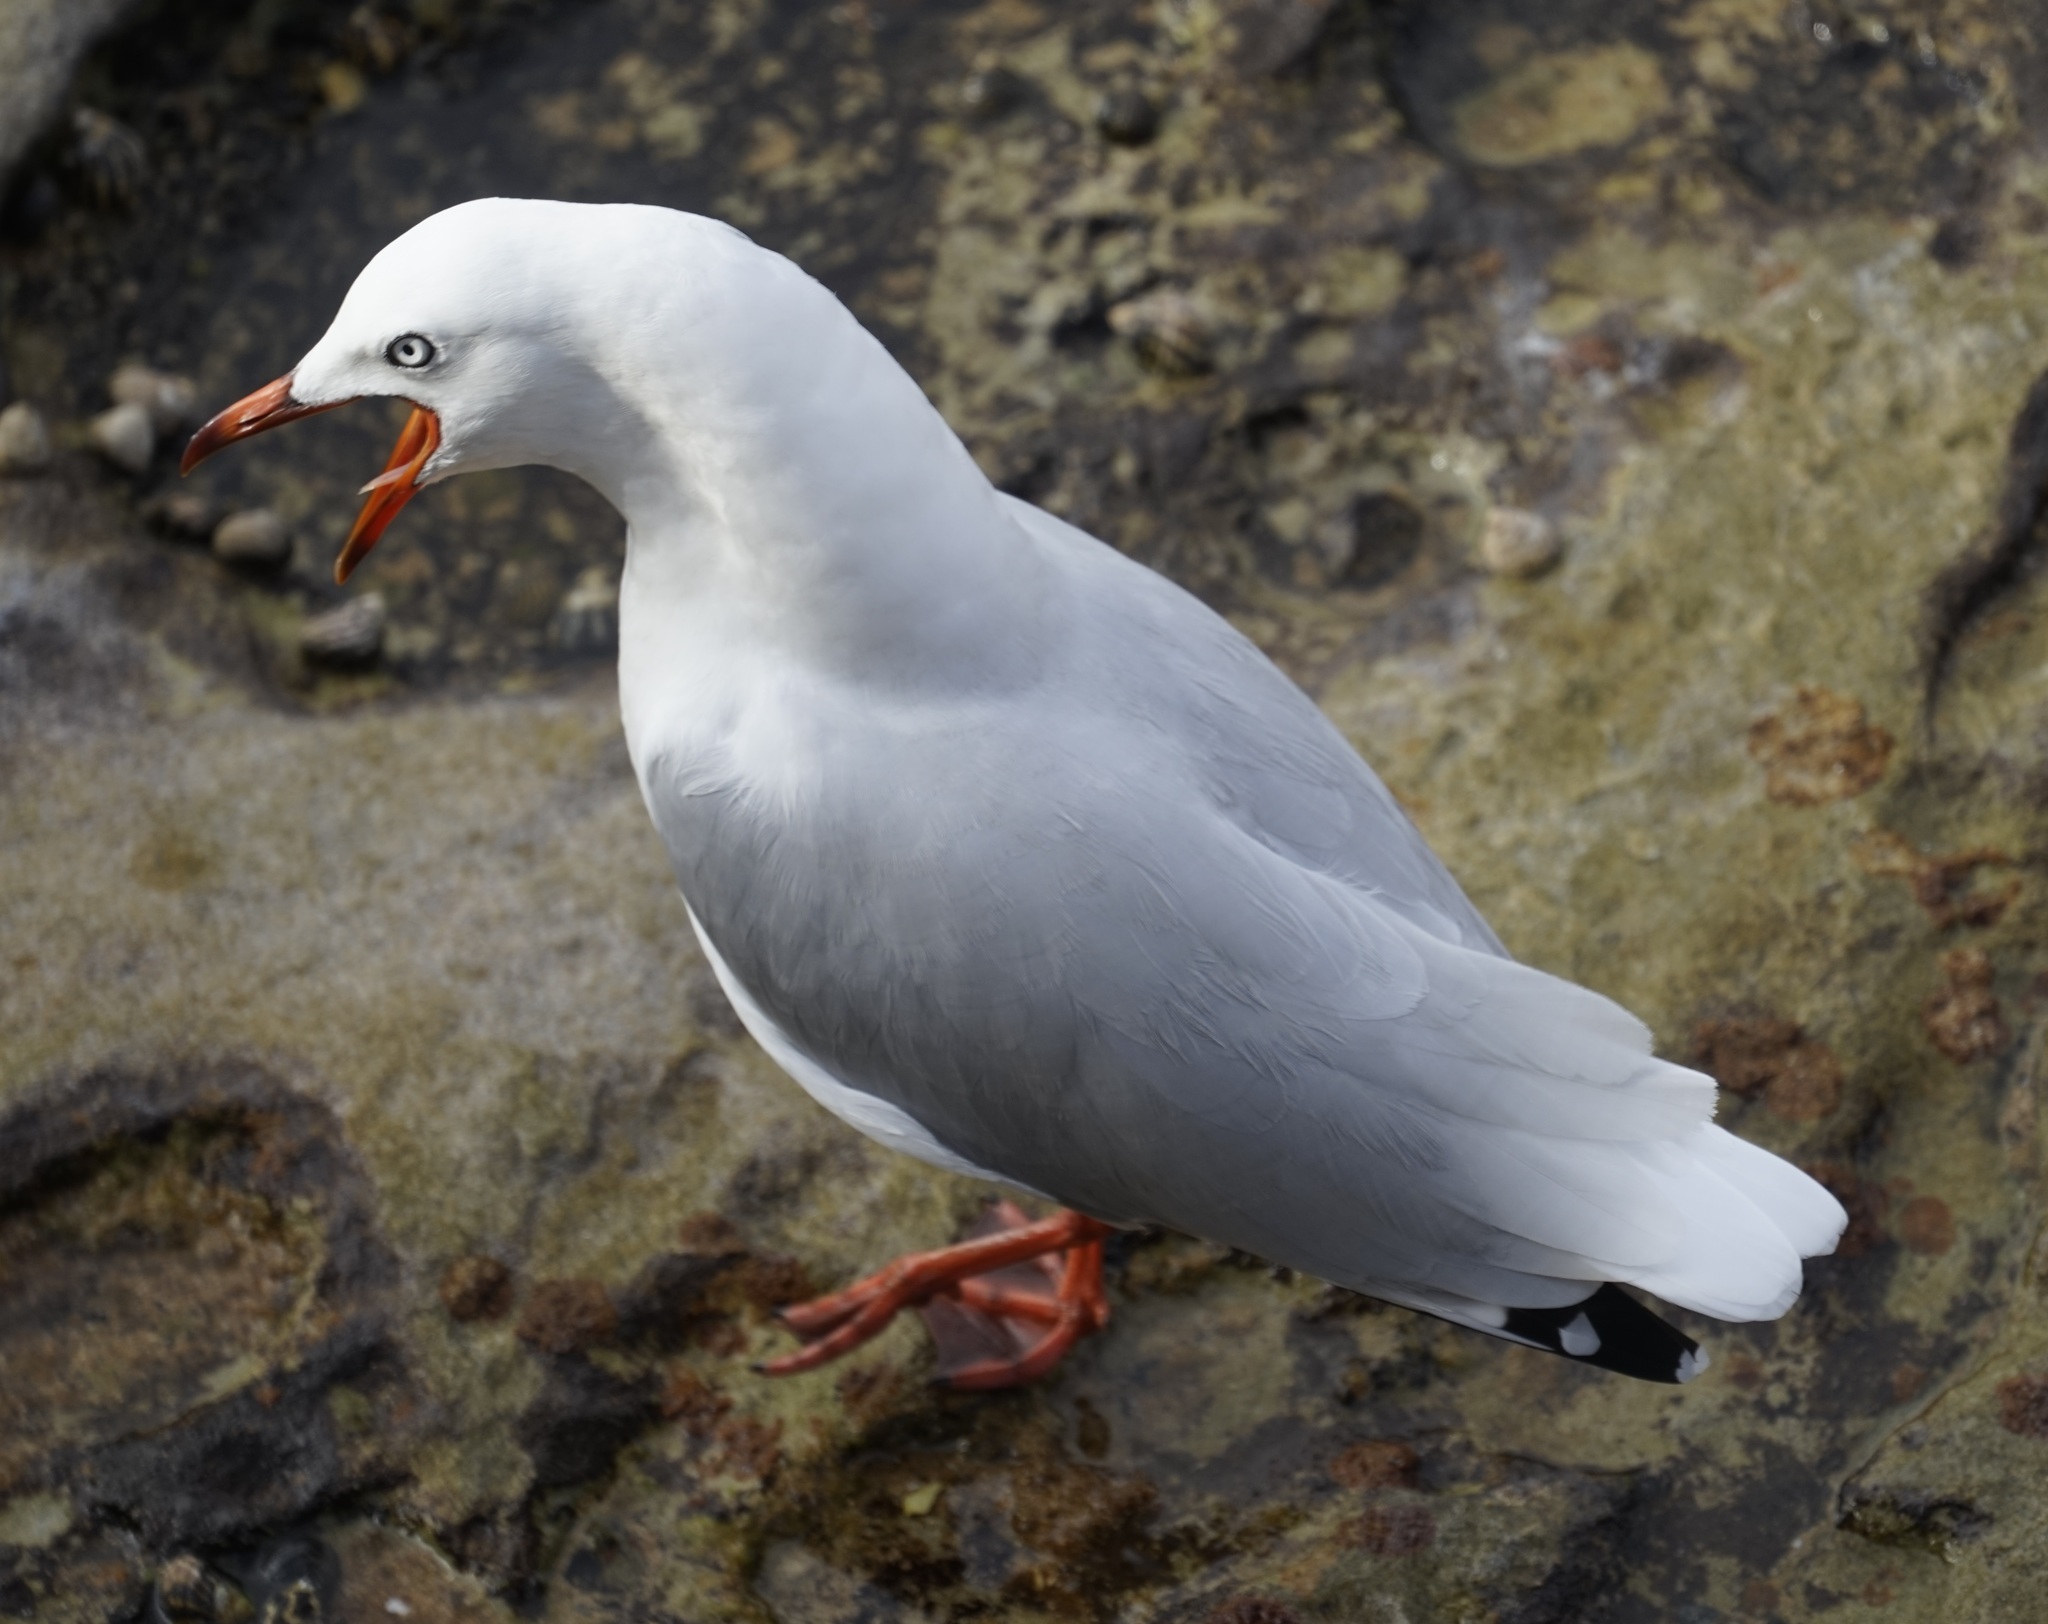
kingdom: Animalia
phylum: Chordata
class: Aves
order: Charadriiformes
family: Laridae
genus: Chroicocephalus
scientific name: Chroicocephalus novaehollandiae
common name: Silver gull
